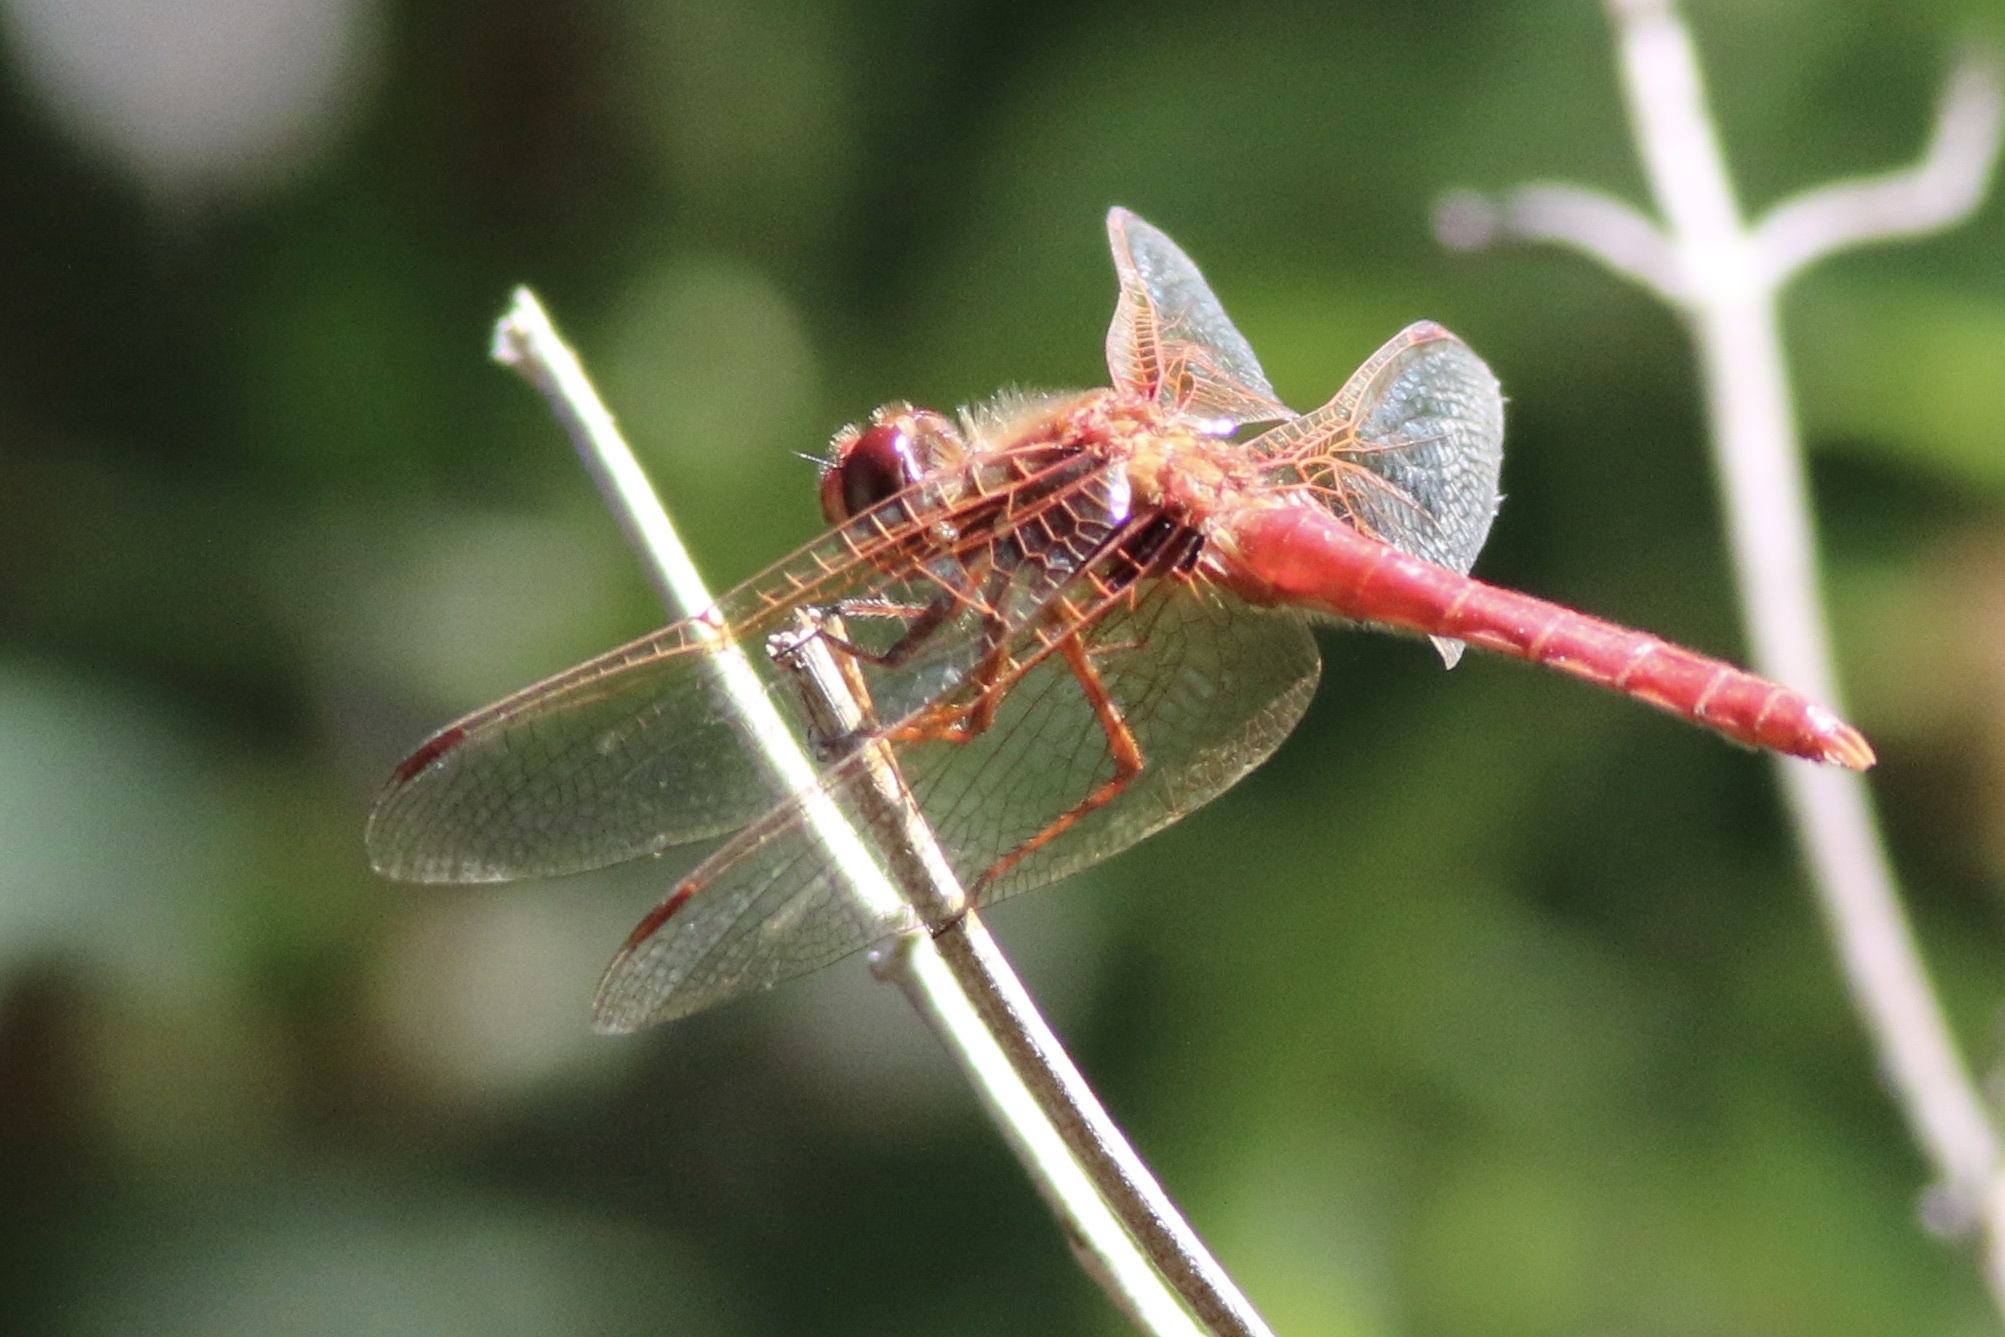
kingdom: Animalia
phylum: Arthropoda
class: Insecta
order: Odonata
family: Libellulidae
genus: Sympetrum
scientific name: Sympetrum illotum
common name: Cardinal meadowhawk
